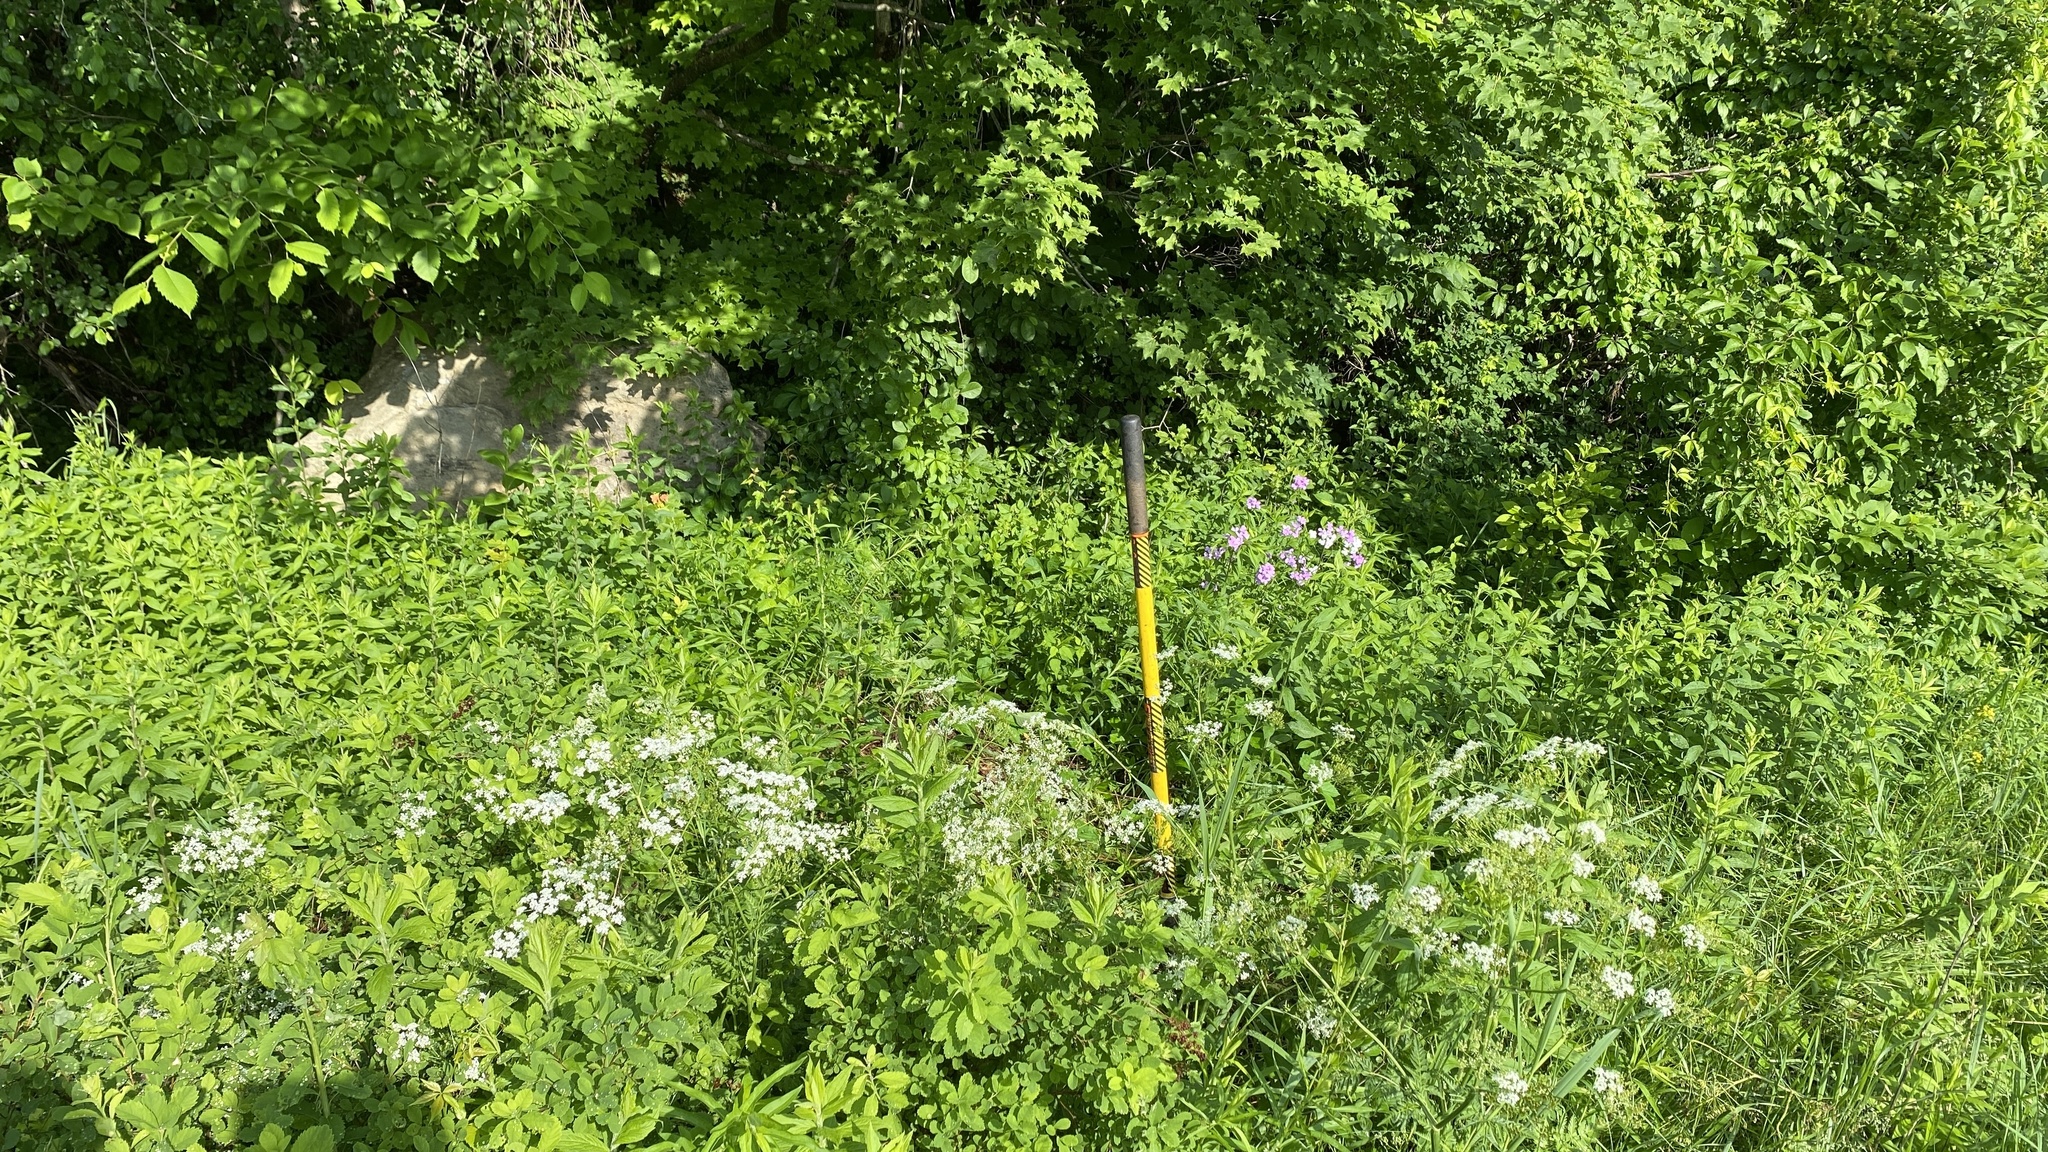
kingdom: Plantae
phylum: Tracheophyta
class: Magnoliopsida
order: Apiales
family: Apiaceae
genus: Anthriscus
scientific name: Anthriscus sylvestris
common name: Cow parsley
